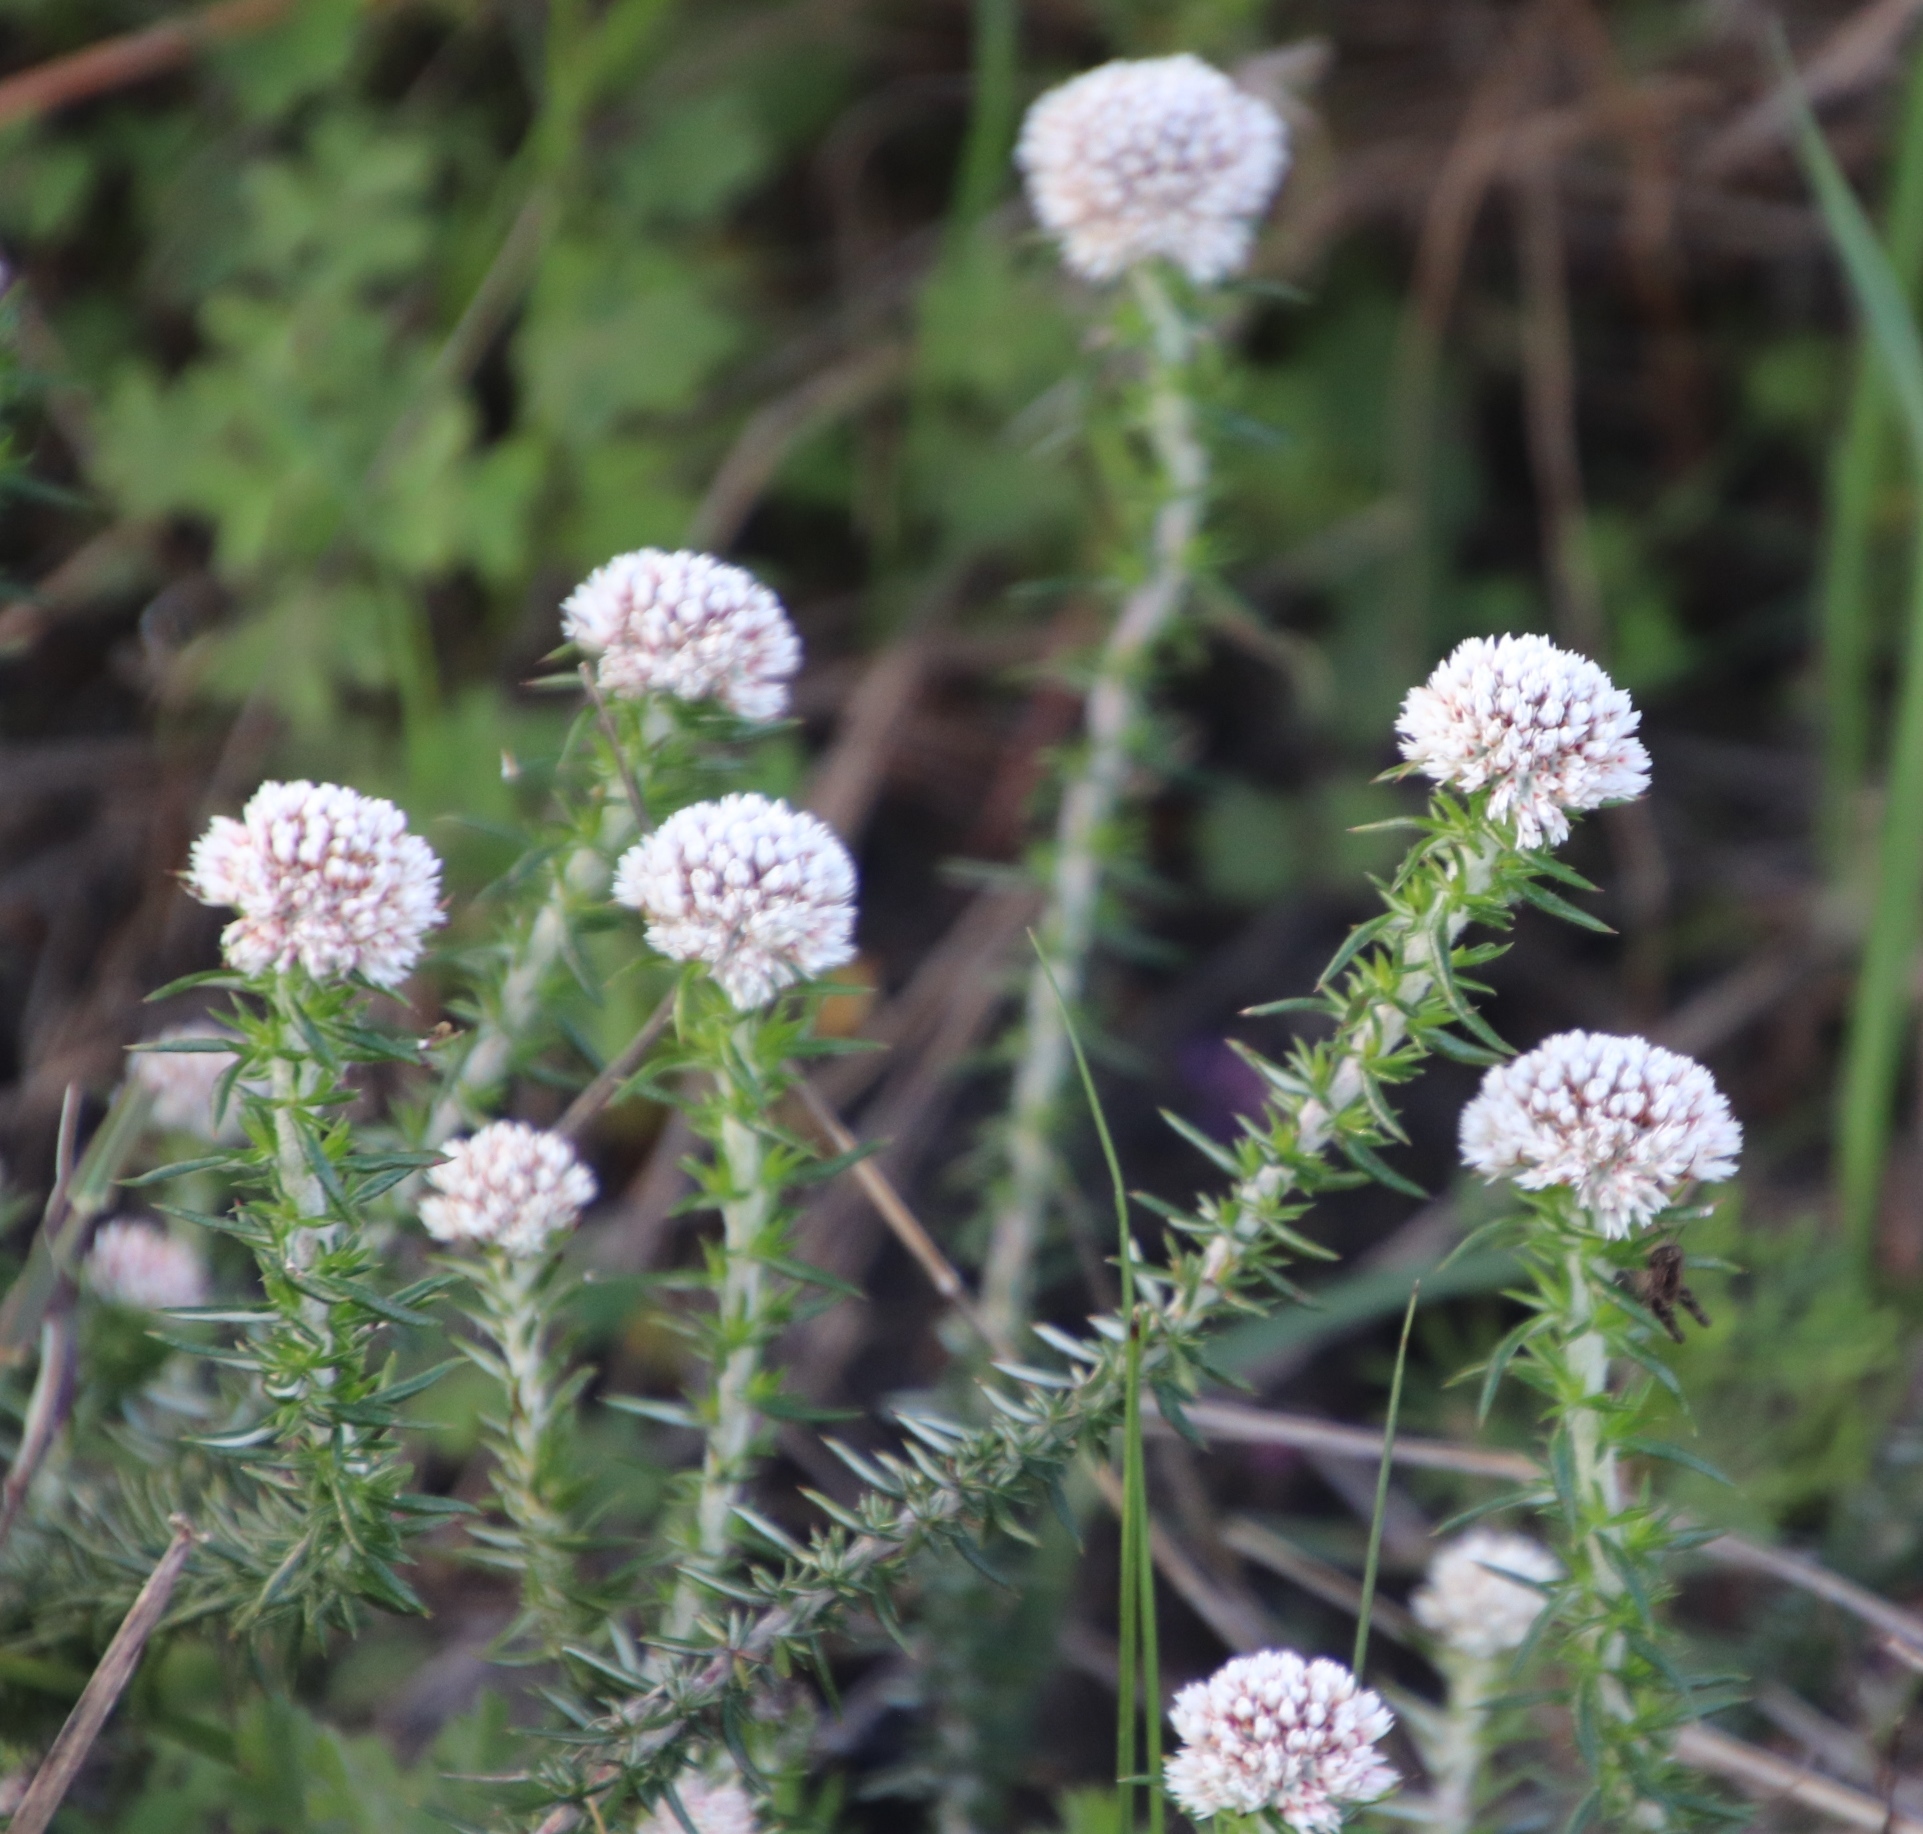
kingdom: Plantae
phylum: Tracheophyta
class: Magnoliopsida
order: Asterales
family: Asteraceae
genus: Metalasia
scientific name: Metalasia pulchella
